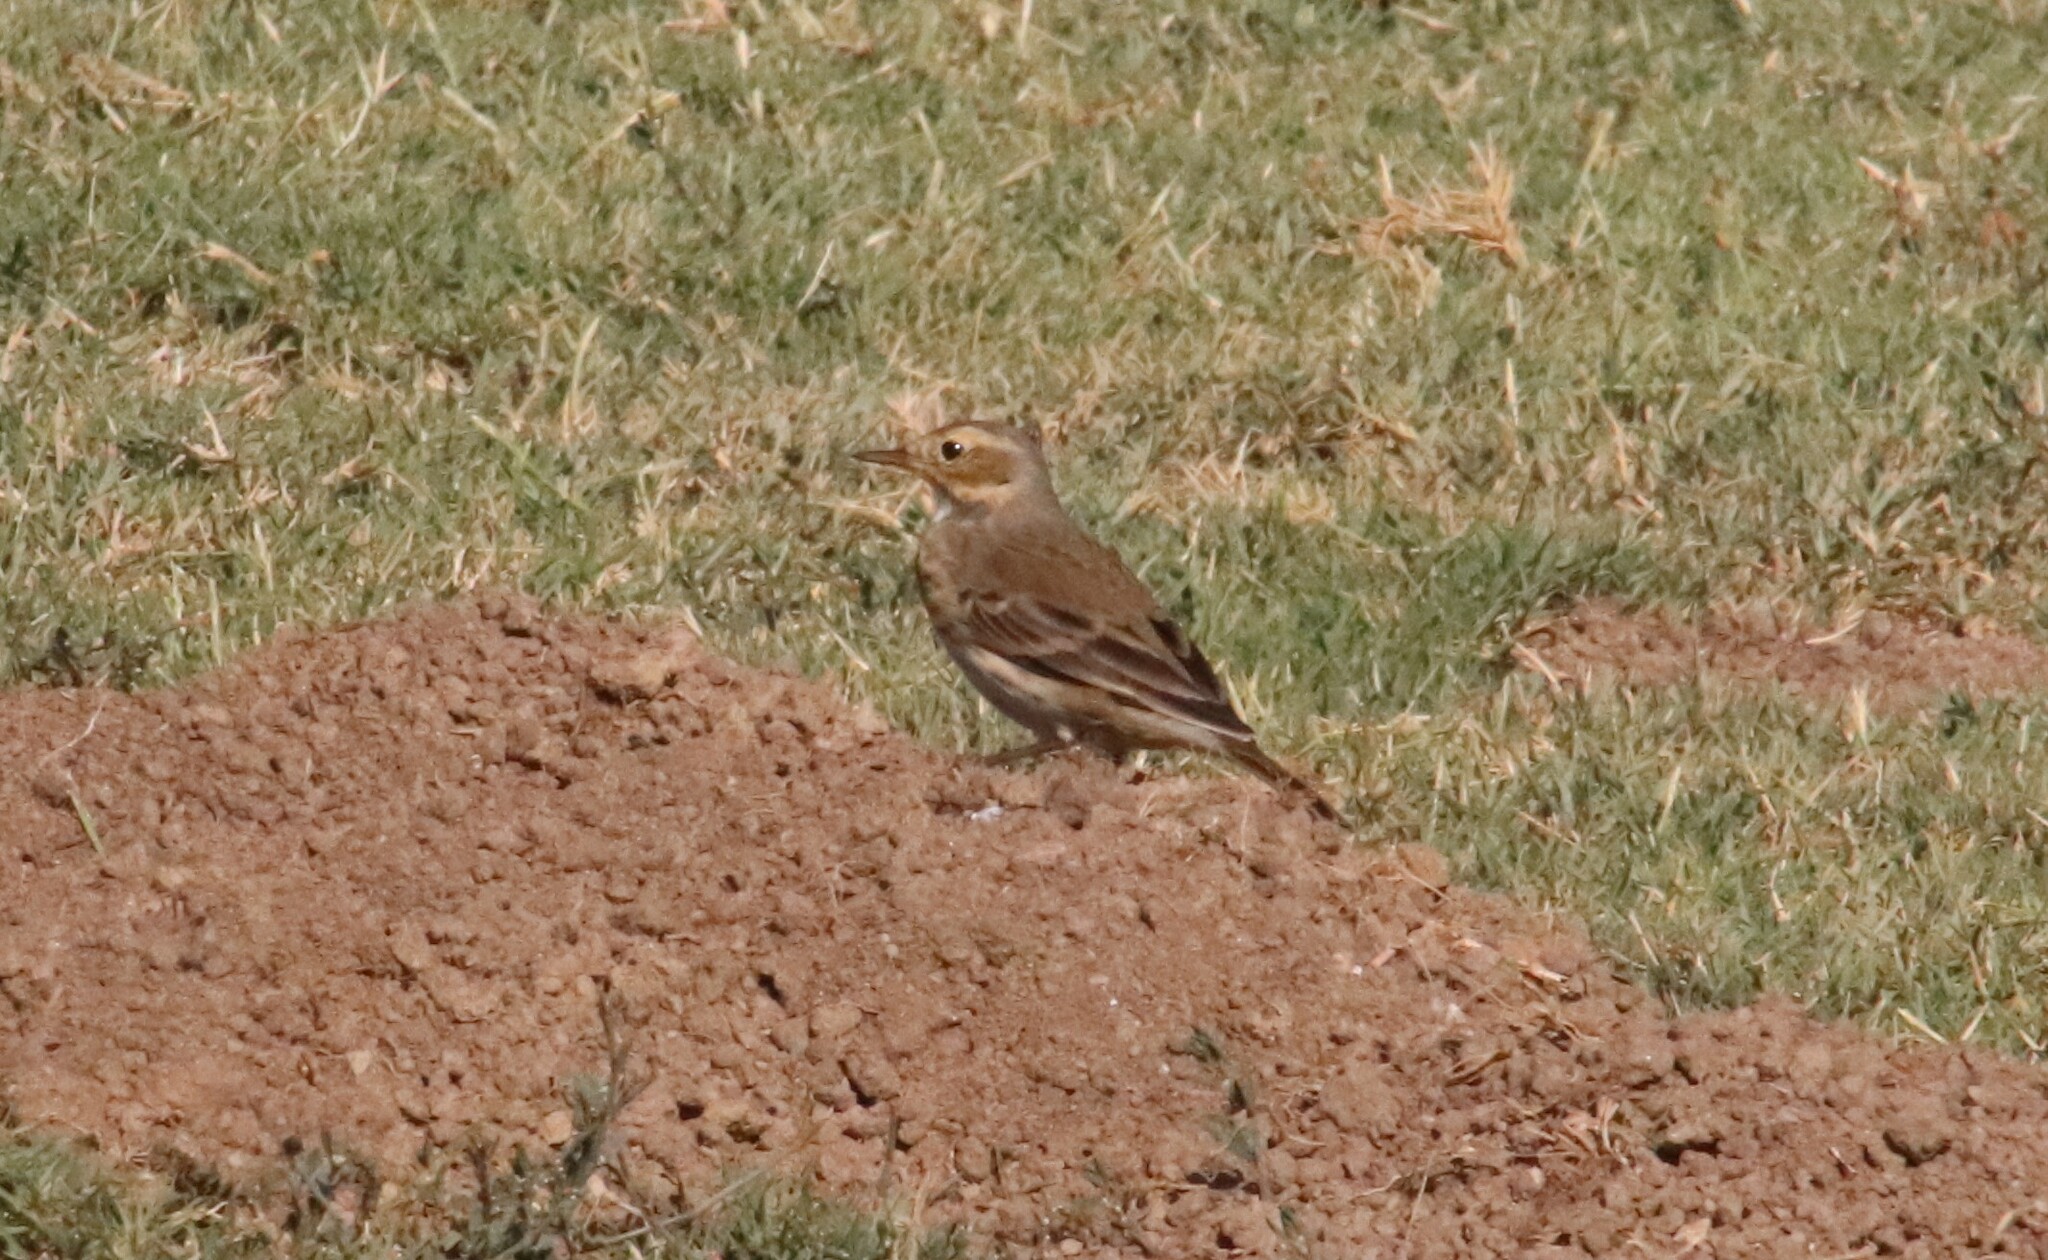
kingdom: Animalia
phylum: Chordata
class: Aves
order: Passeriformes
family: Motacillidae
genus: Anthus
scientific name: Anthus rubescens
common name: Buff-bellied pipit
